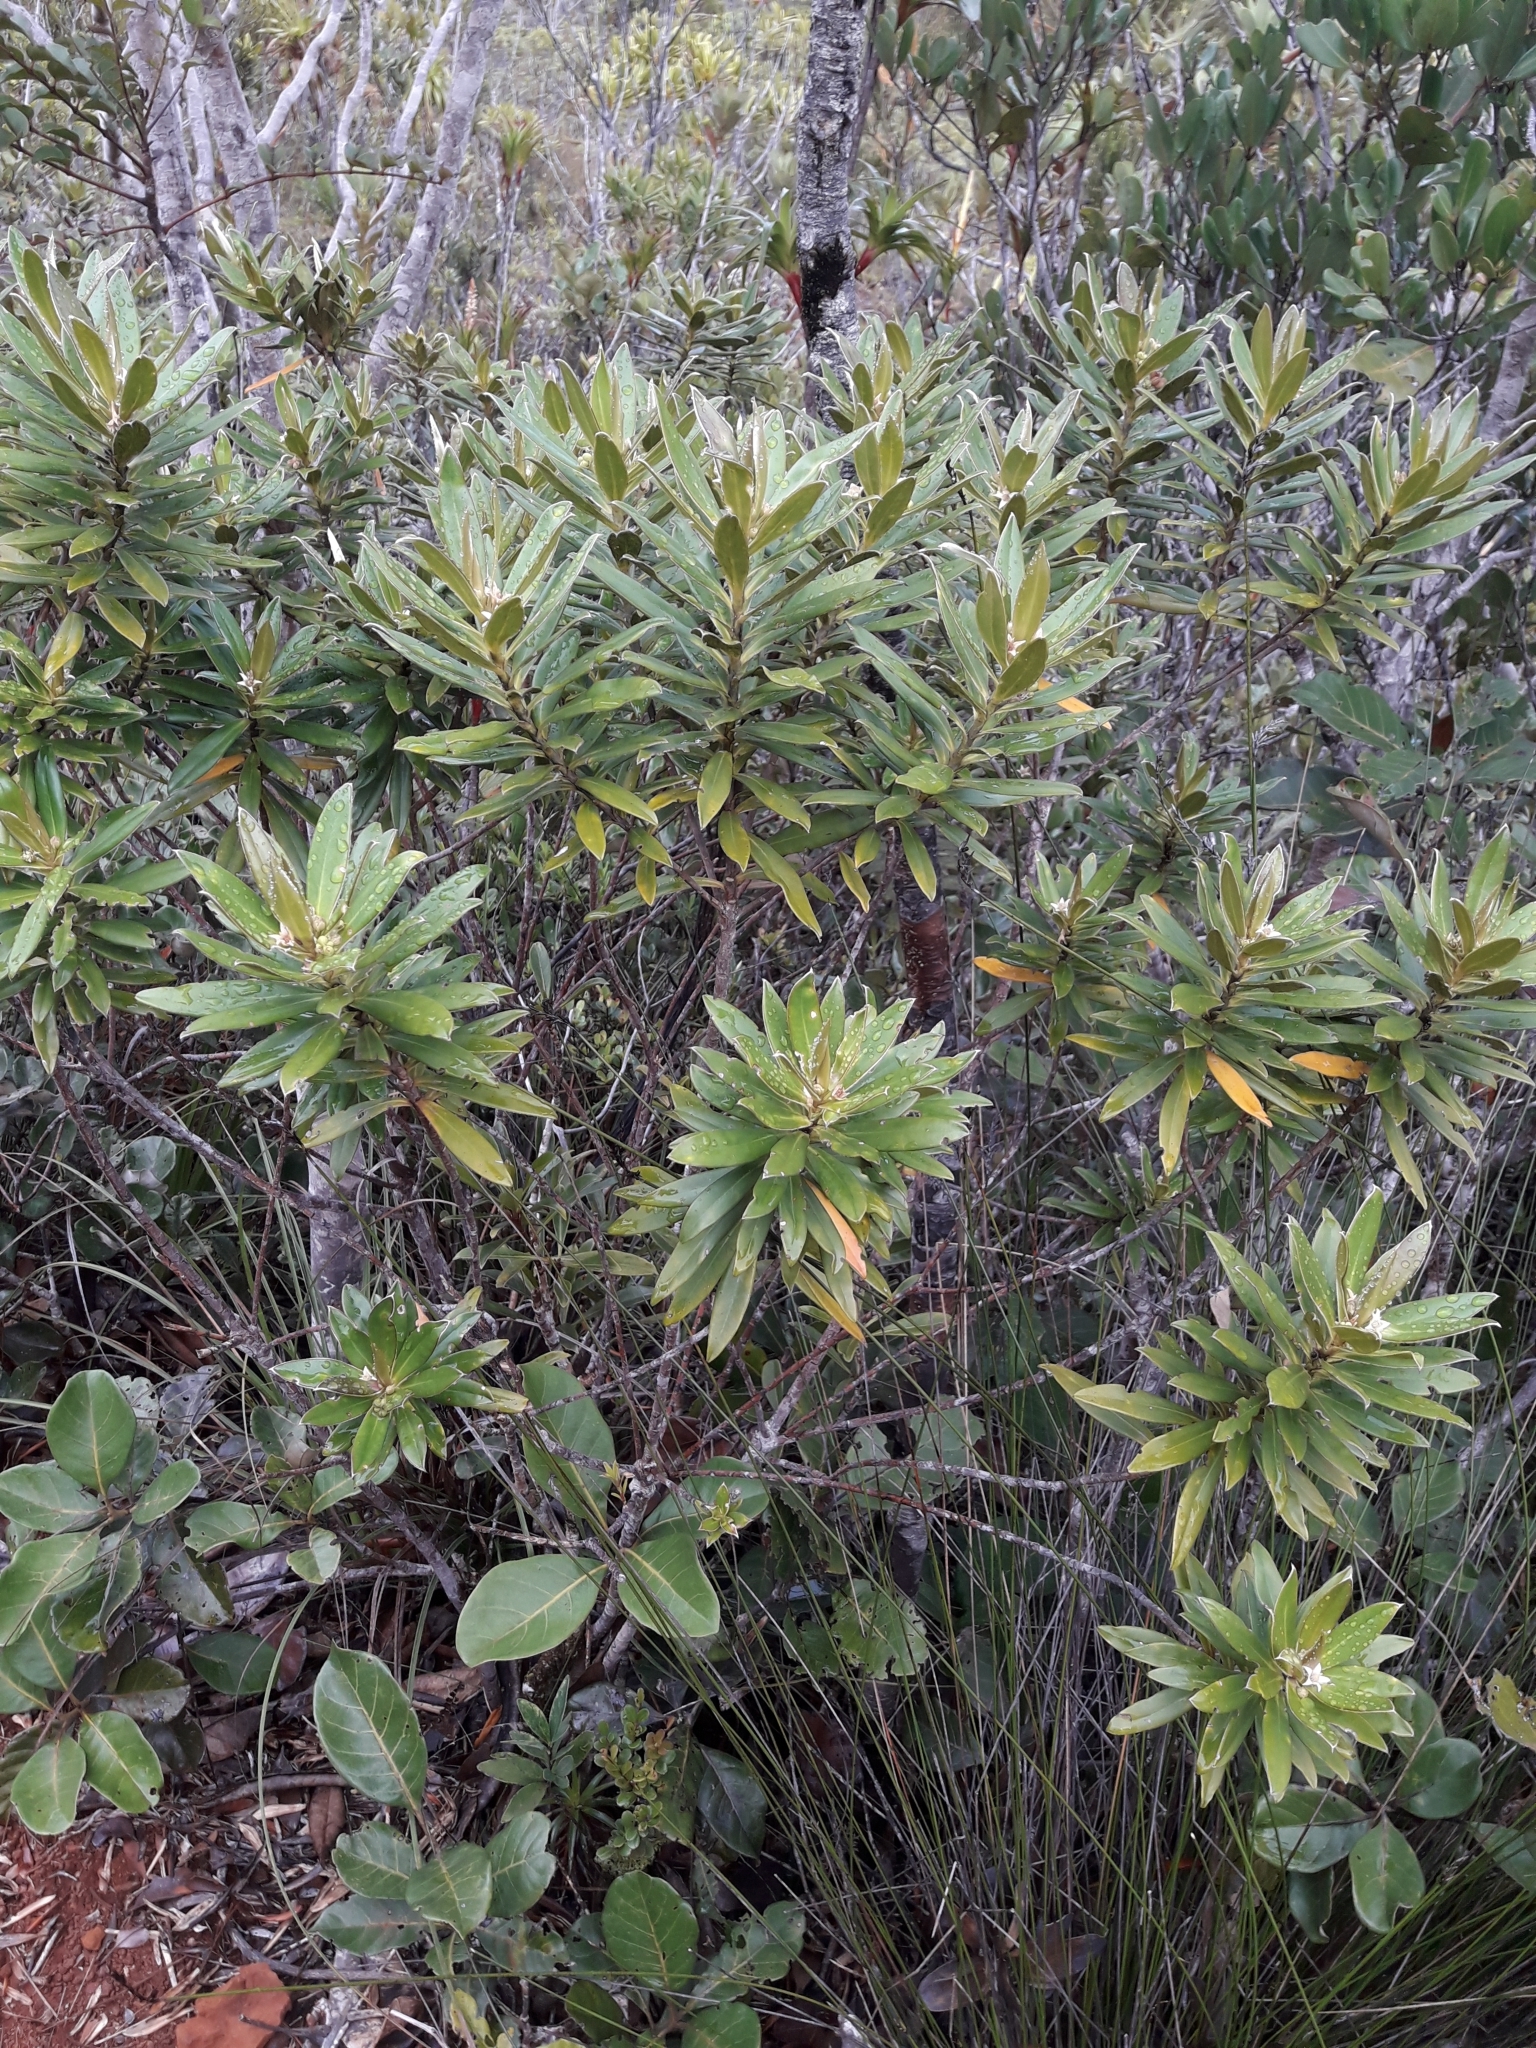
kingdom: Plantae
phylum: Tracheophyta
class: Magnoliopsida
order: Sapindales
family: Rutaceae
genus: Neoschmidia
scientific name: Neoschmidia pallida
